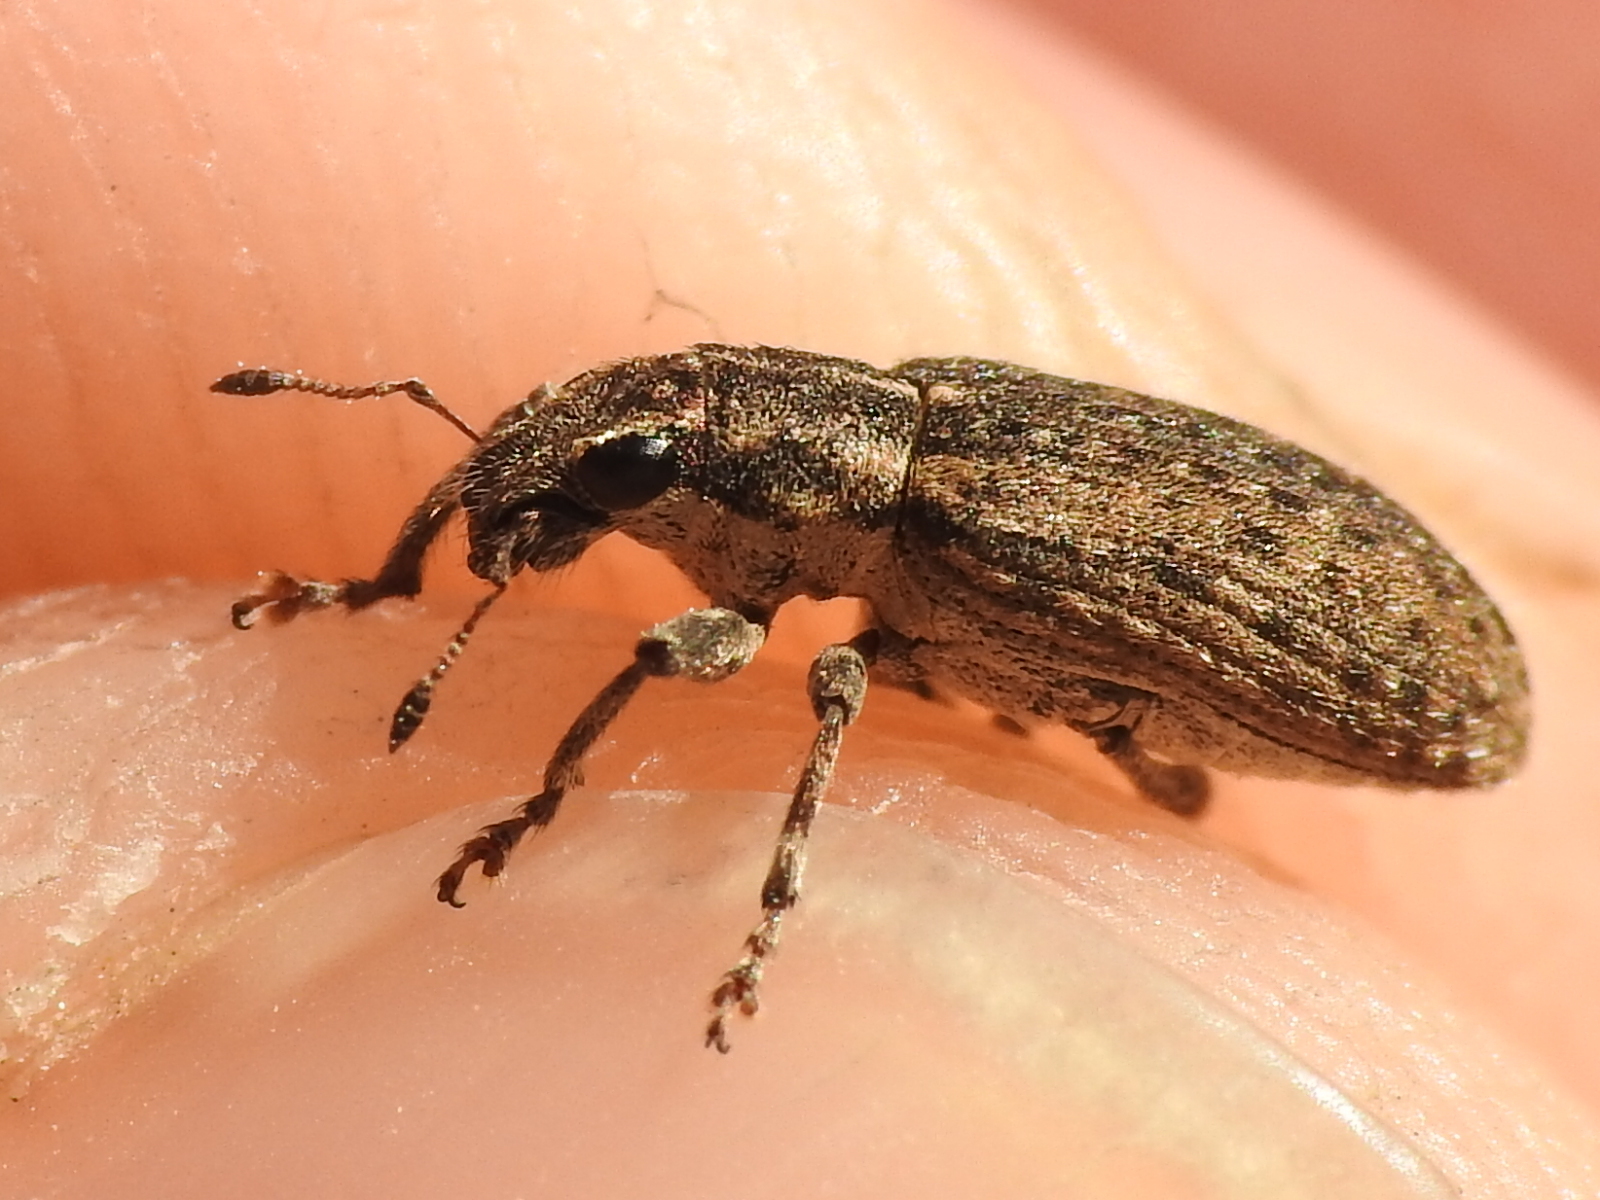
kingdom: Animalia
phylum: Arthropoda
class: Insecta
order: Coleoptera
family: Curculionidae
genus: Sitones
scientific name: Sitones californius
